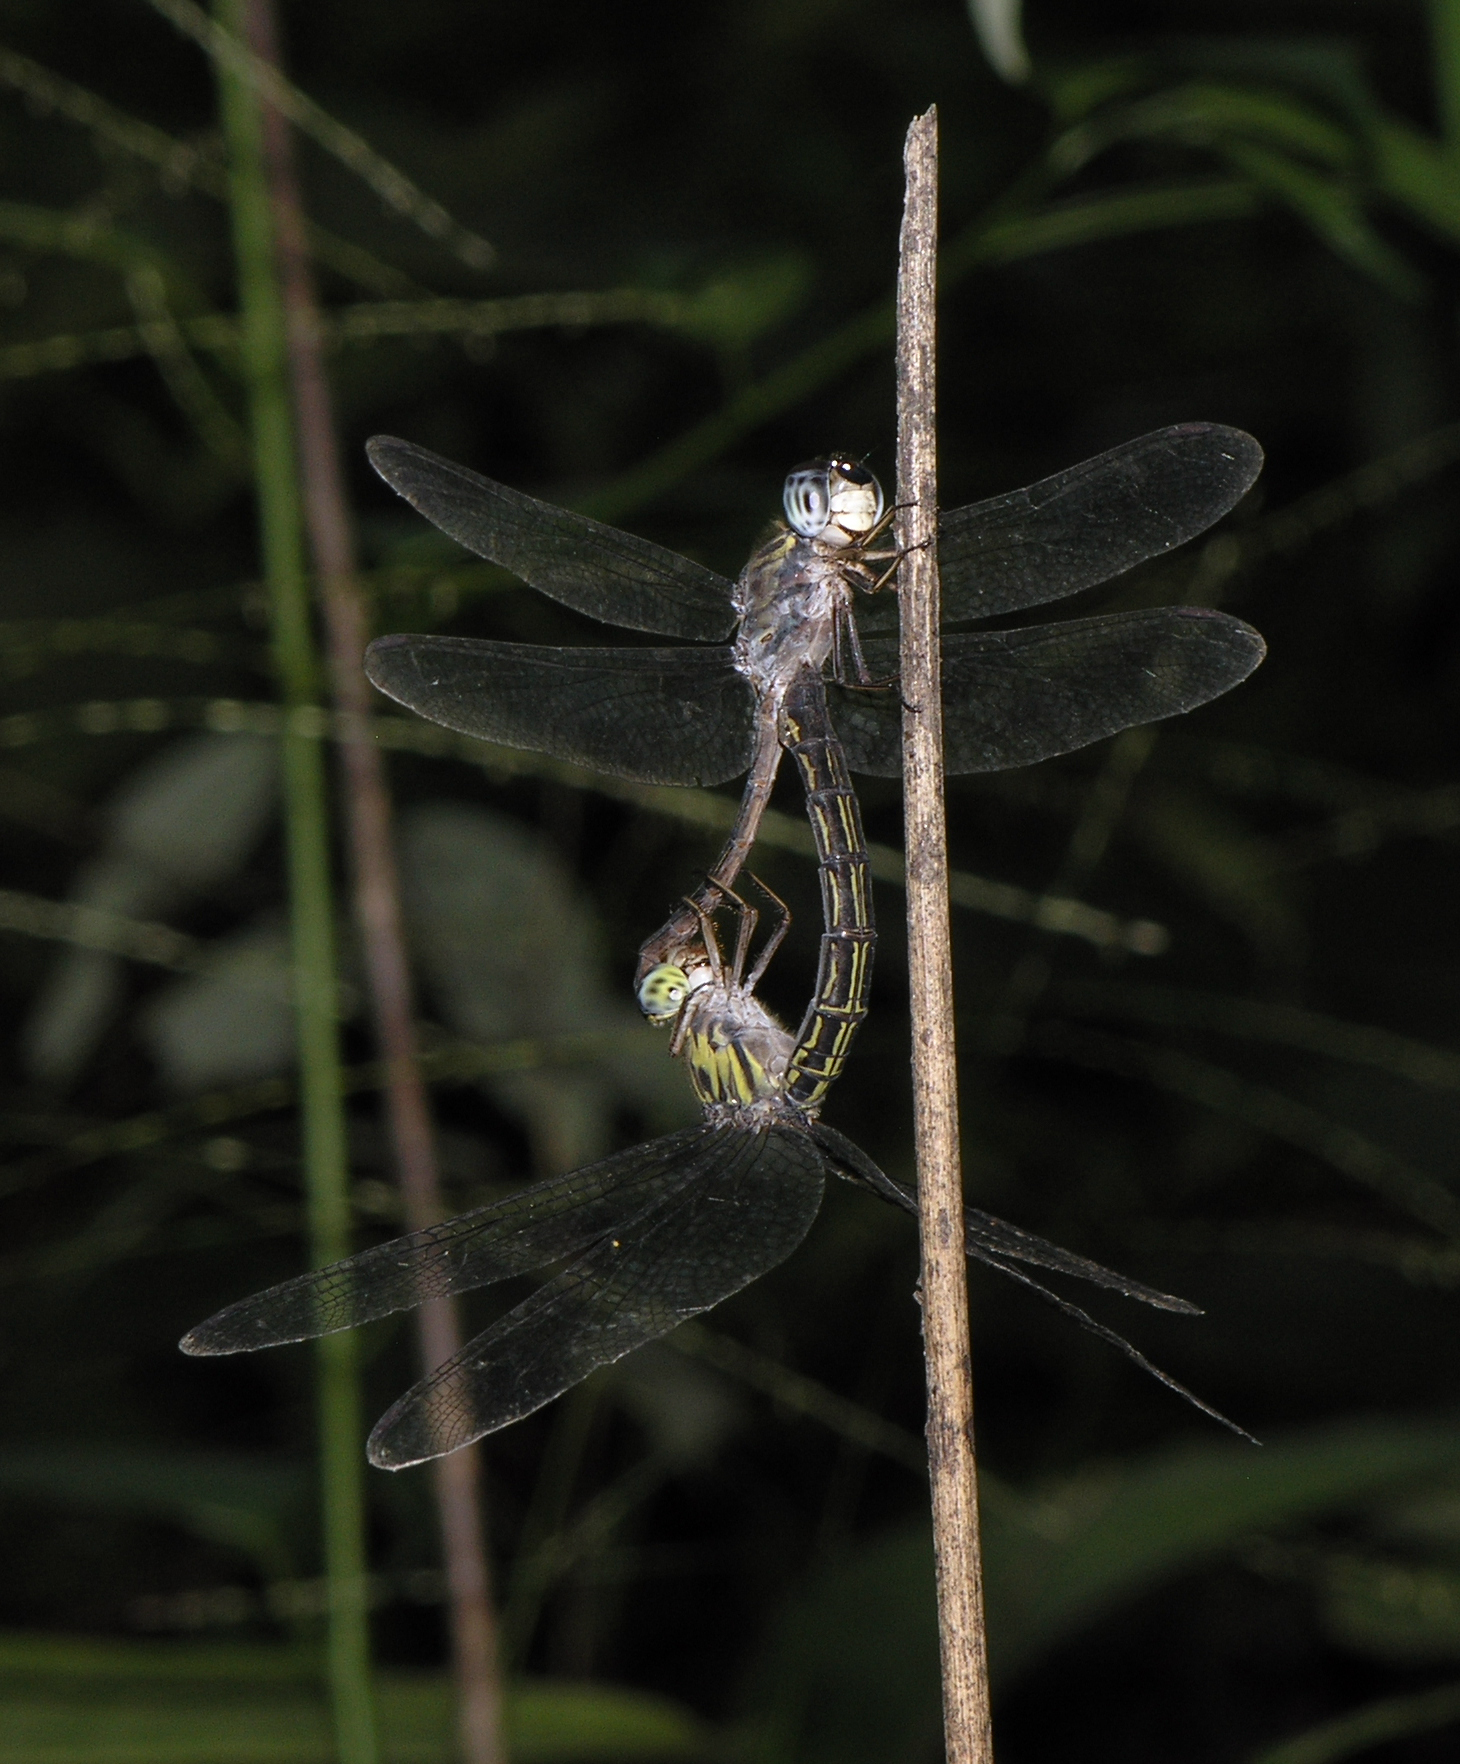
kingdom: Animalia
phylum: Arthropoda
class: Insecta
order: Odonata
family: Libellulidae
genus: Cratilla
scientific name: Cratilla lineata
